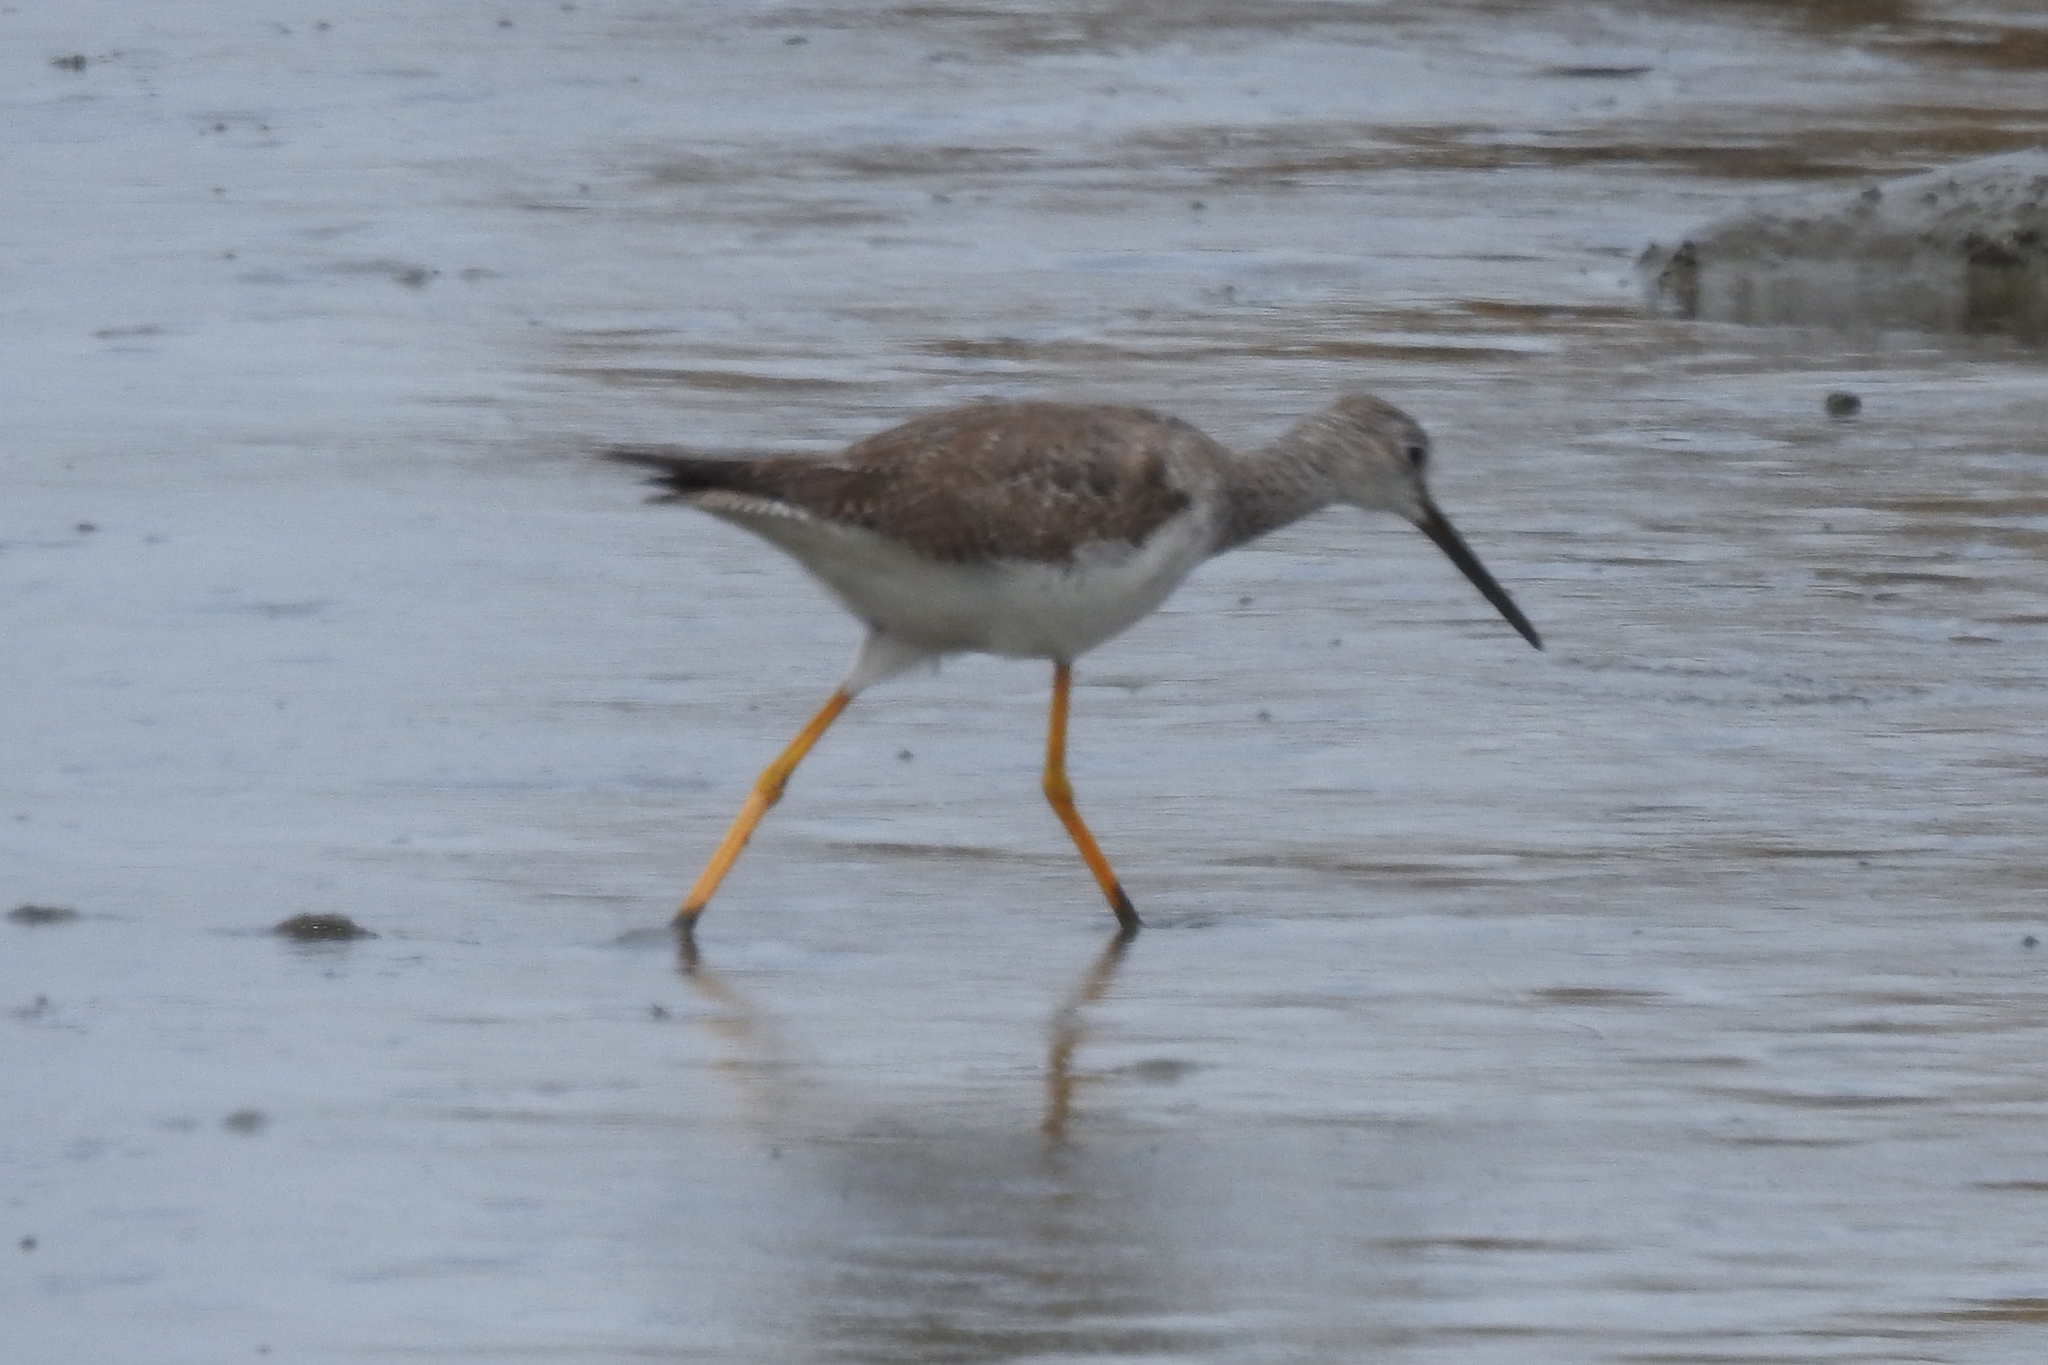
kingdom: Animalia
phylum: Chordata
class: Aves
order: Charadriiformes
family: Scolopacidae
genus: Tringa
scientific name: Tringa melanoleuca
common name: Greater yellowlegs
